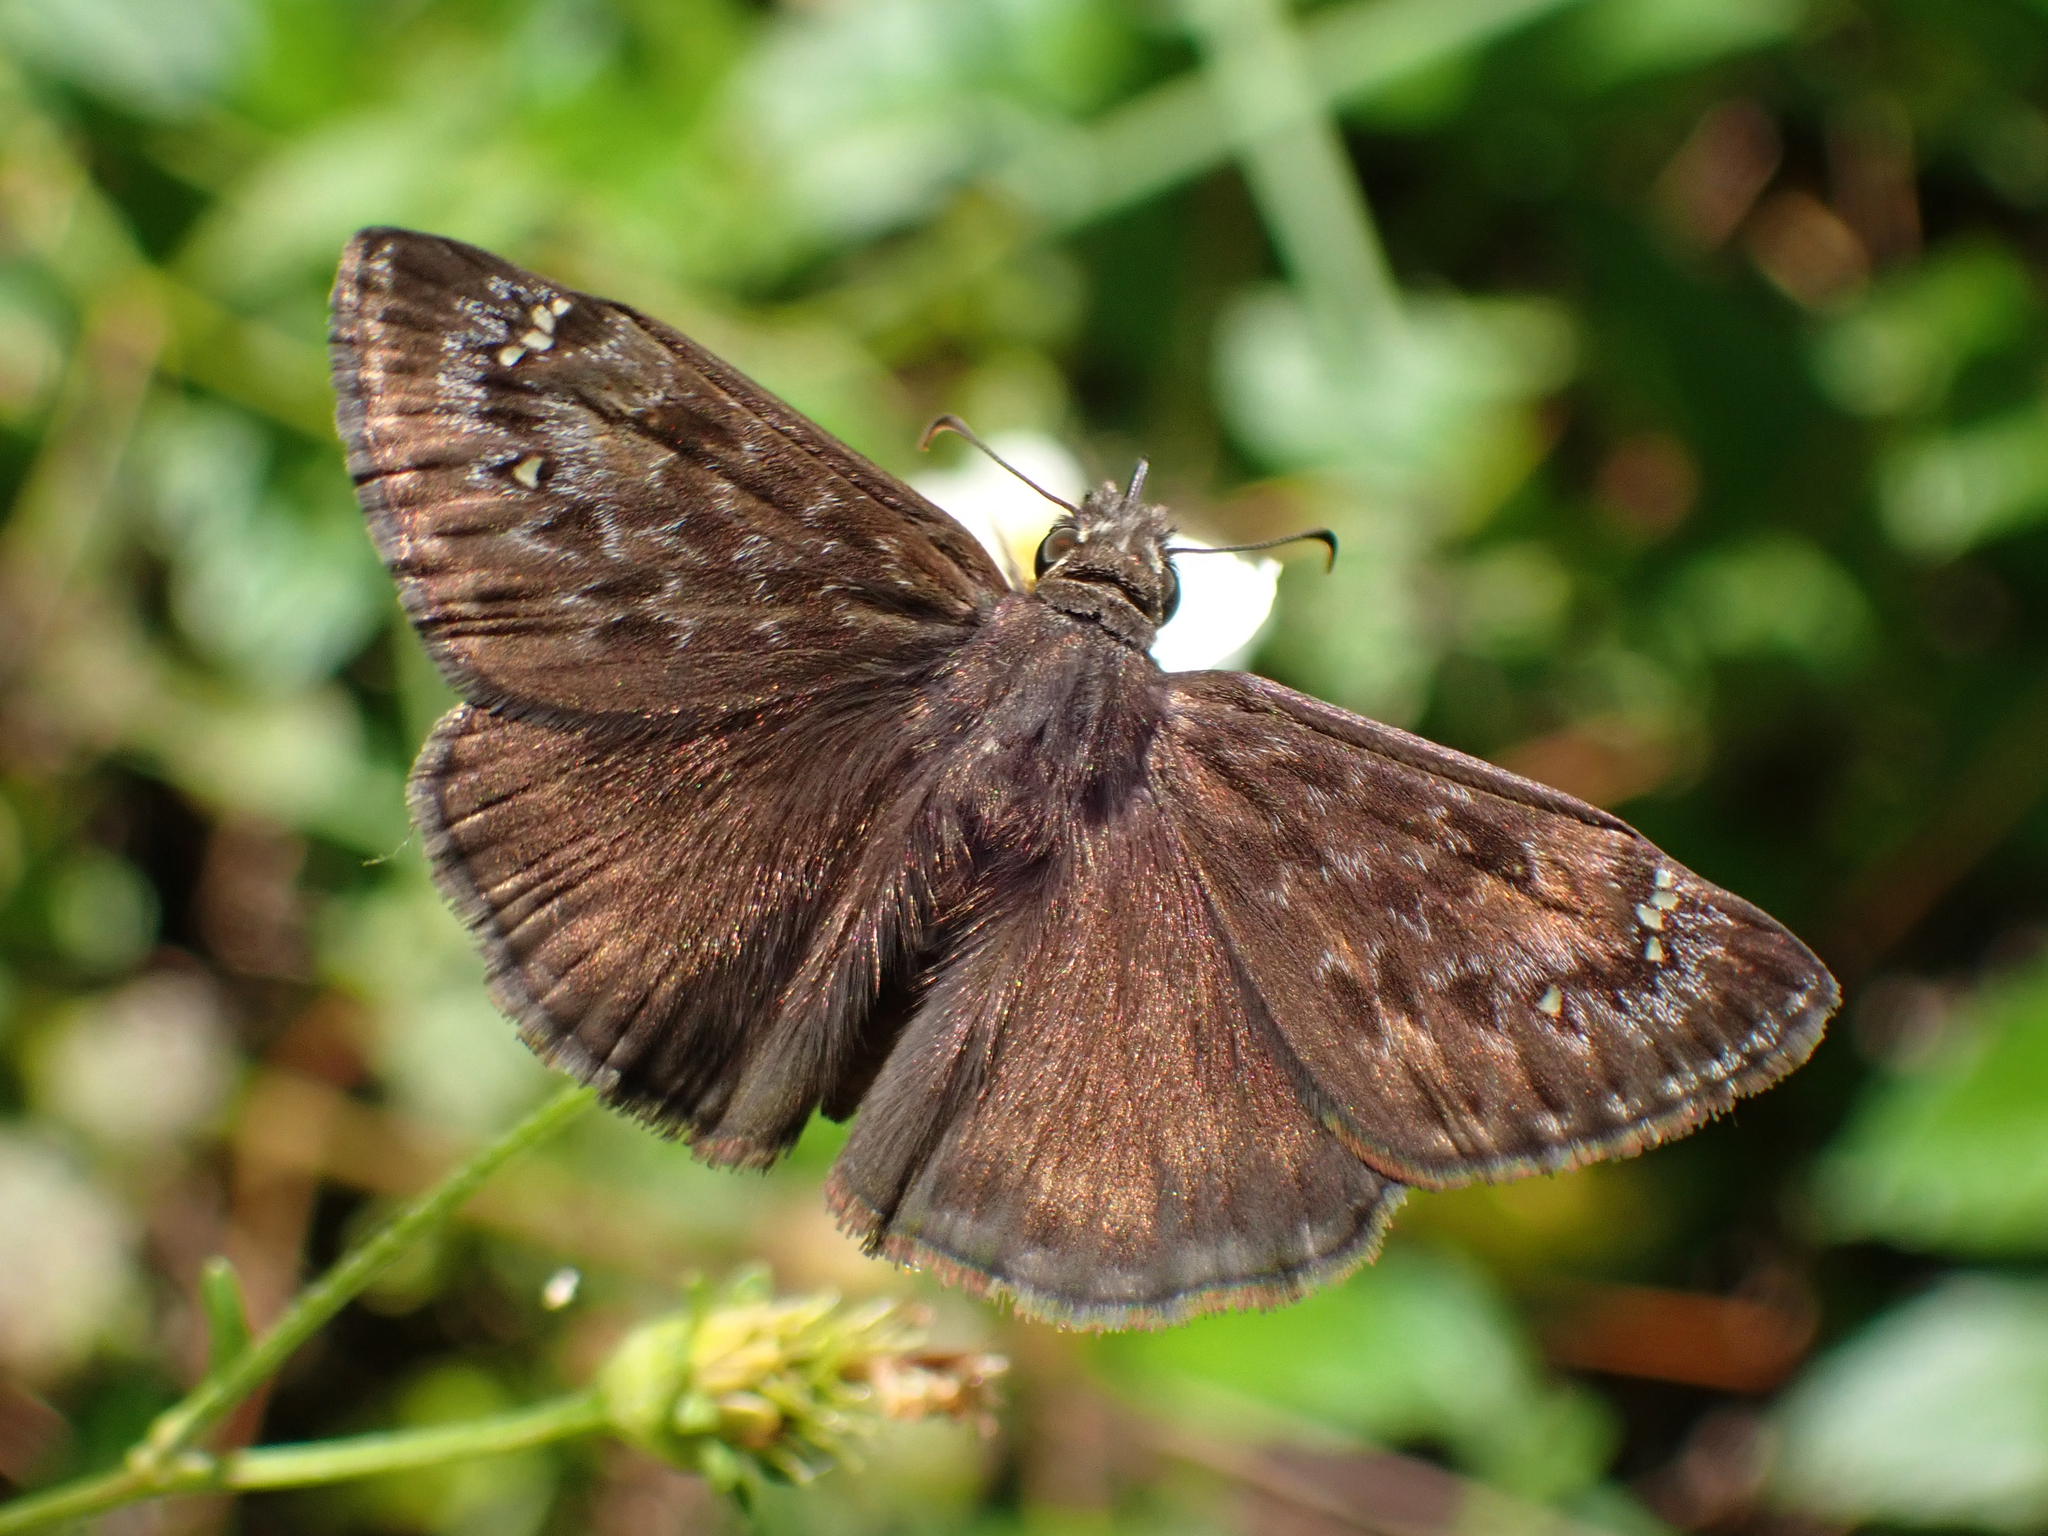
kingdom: Animalia
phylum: Arthropoda
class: Insecta
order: Lepidoptera
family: Hesperiidae
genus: Erynnis
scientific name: Erynnis juvenalis
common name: Juvenal's duskywing
